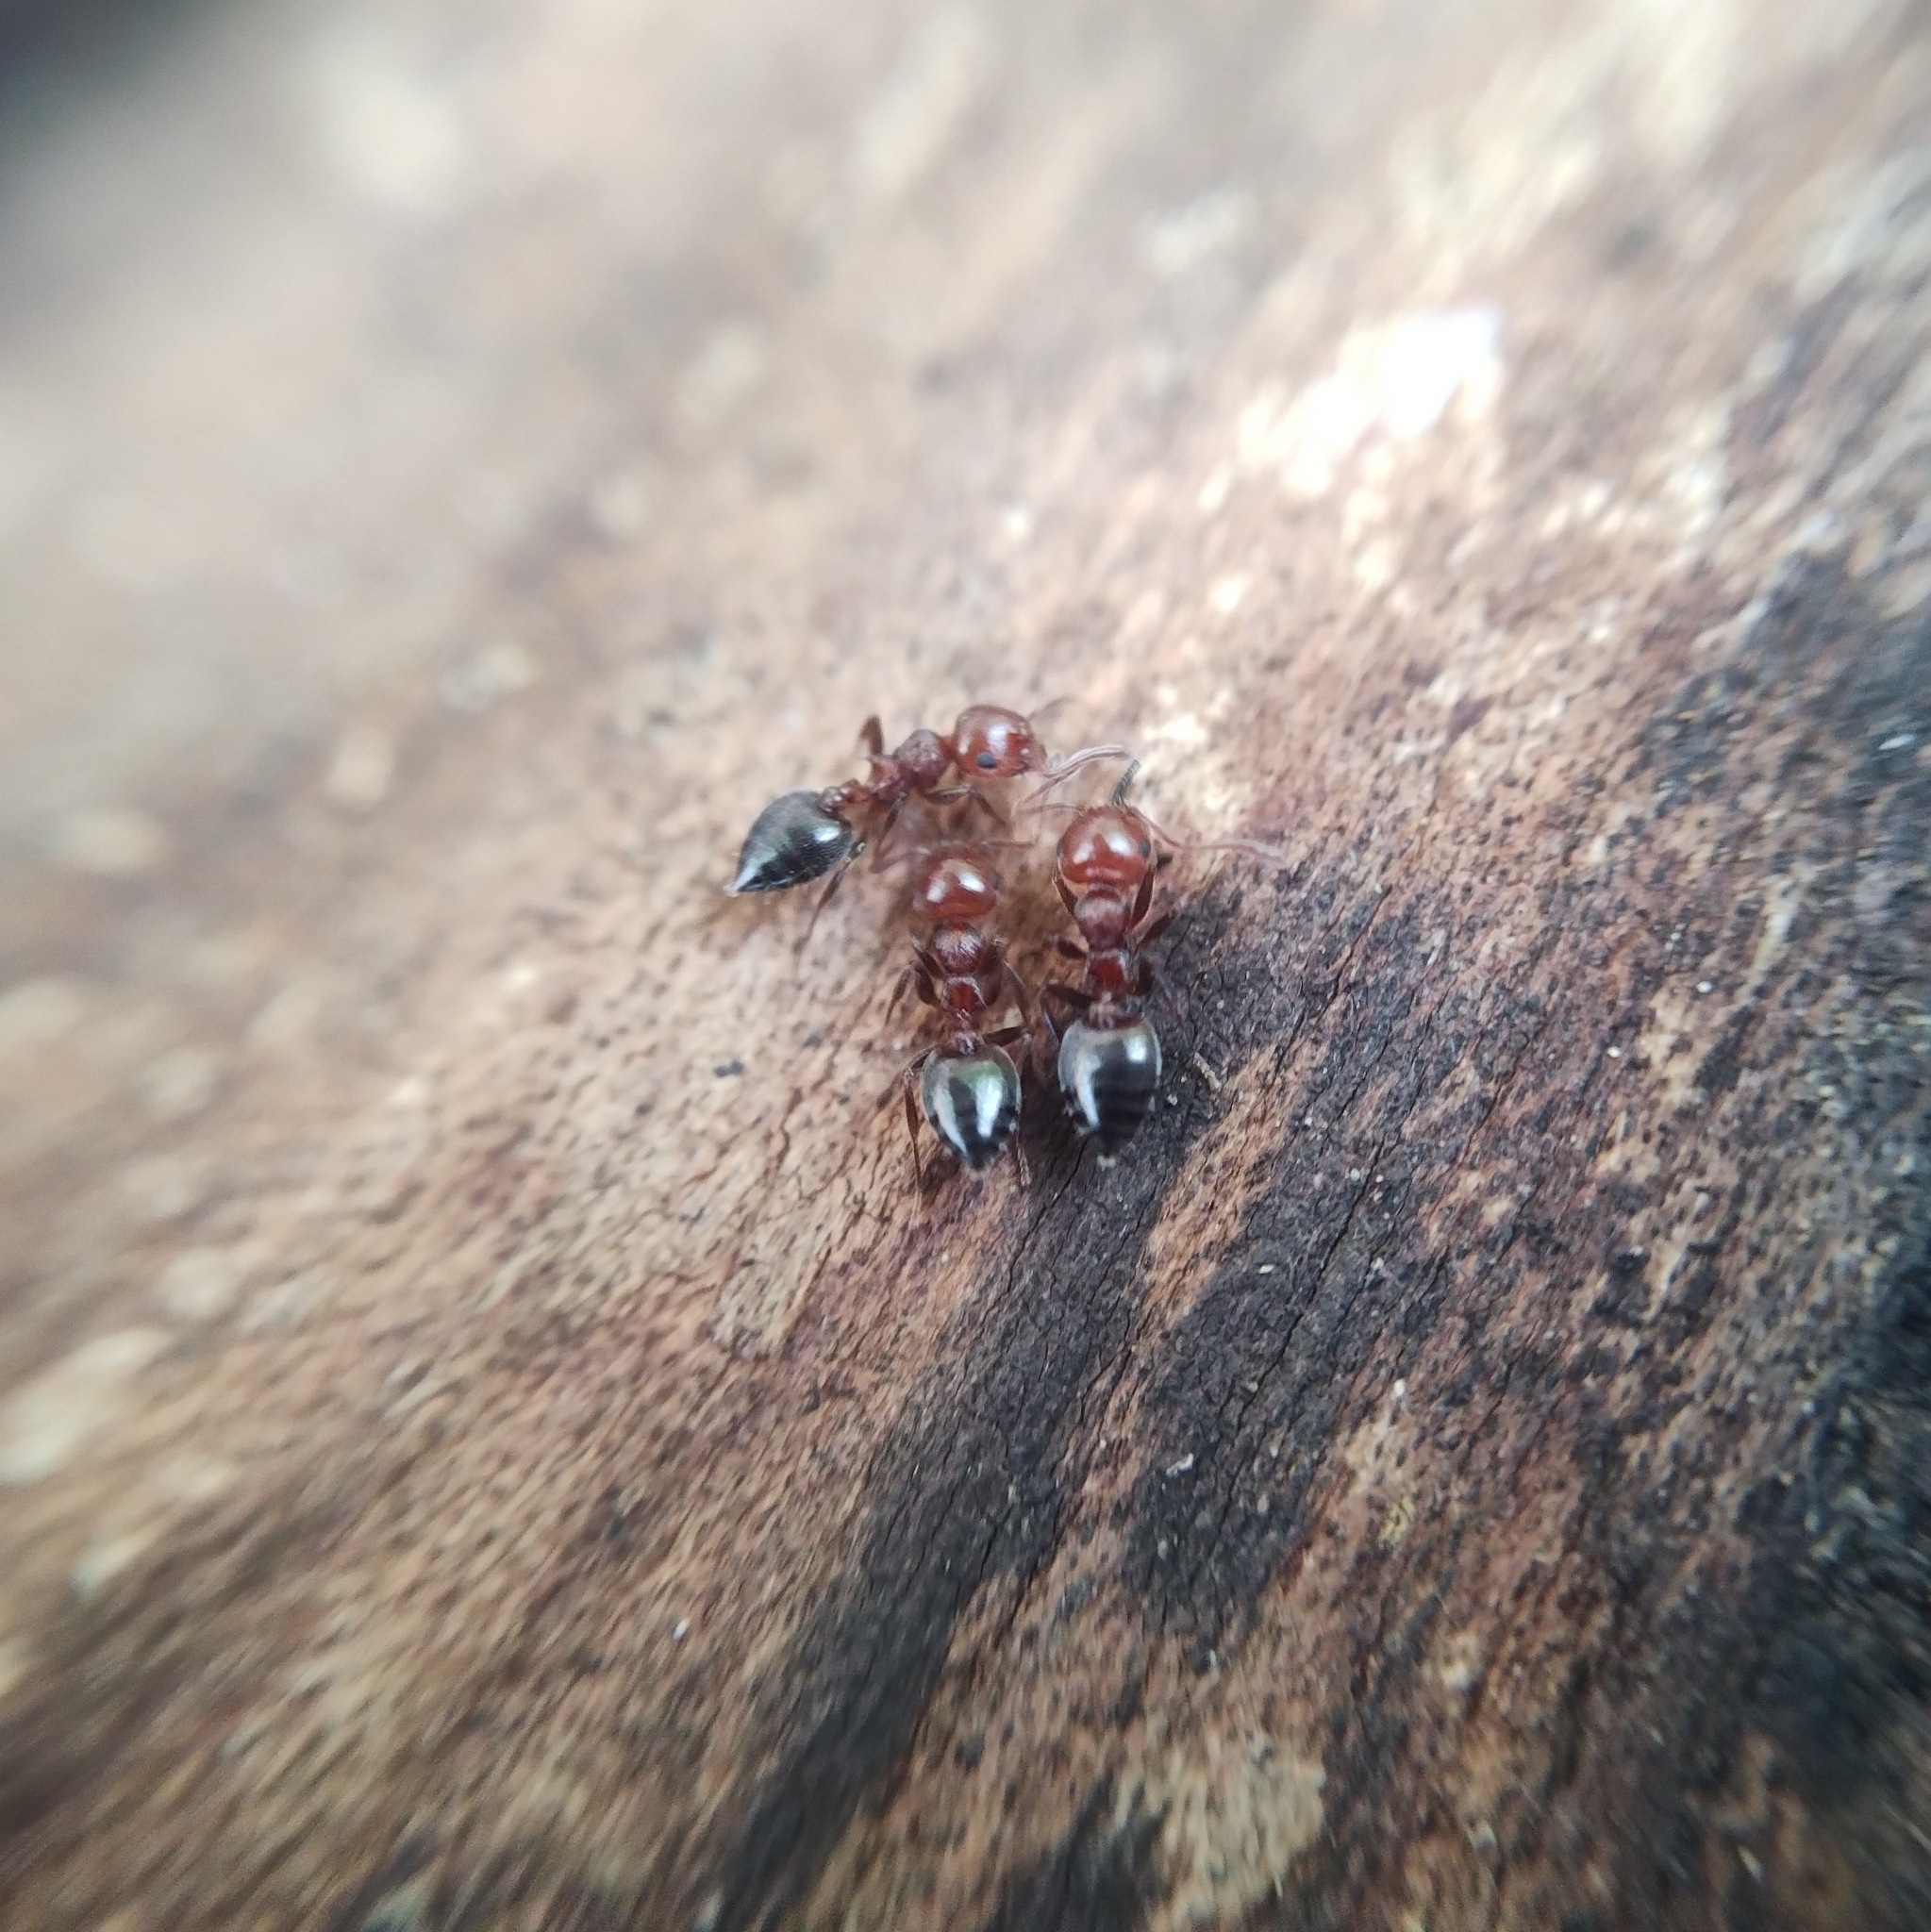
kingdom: Animalia
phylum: Arthropoda
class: Insecta
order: Hymenoptera
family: Formicidae
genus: Crematogaster
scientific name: Crematogaster schmidti
